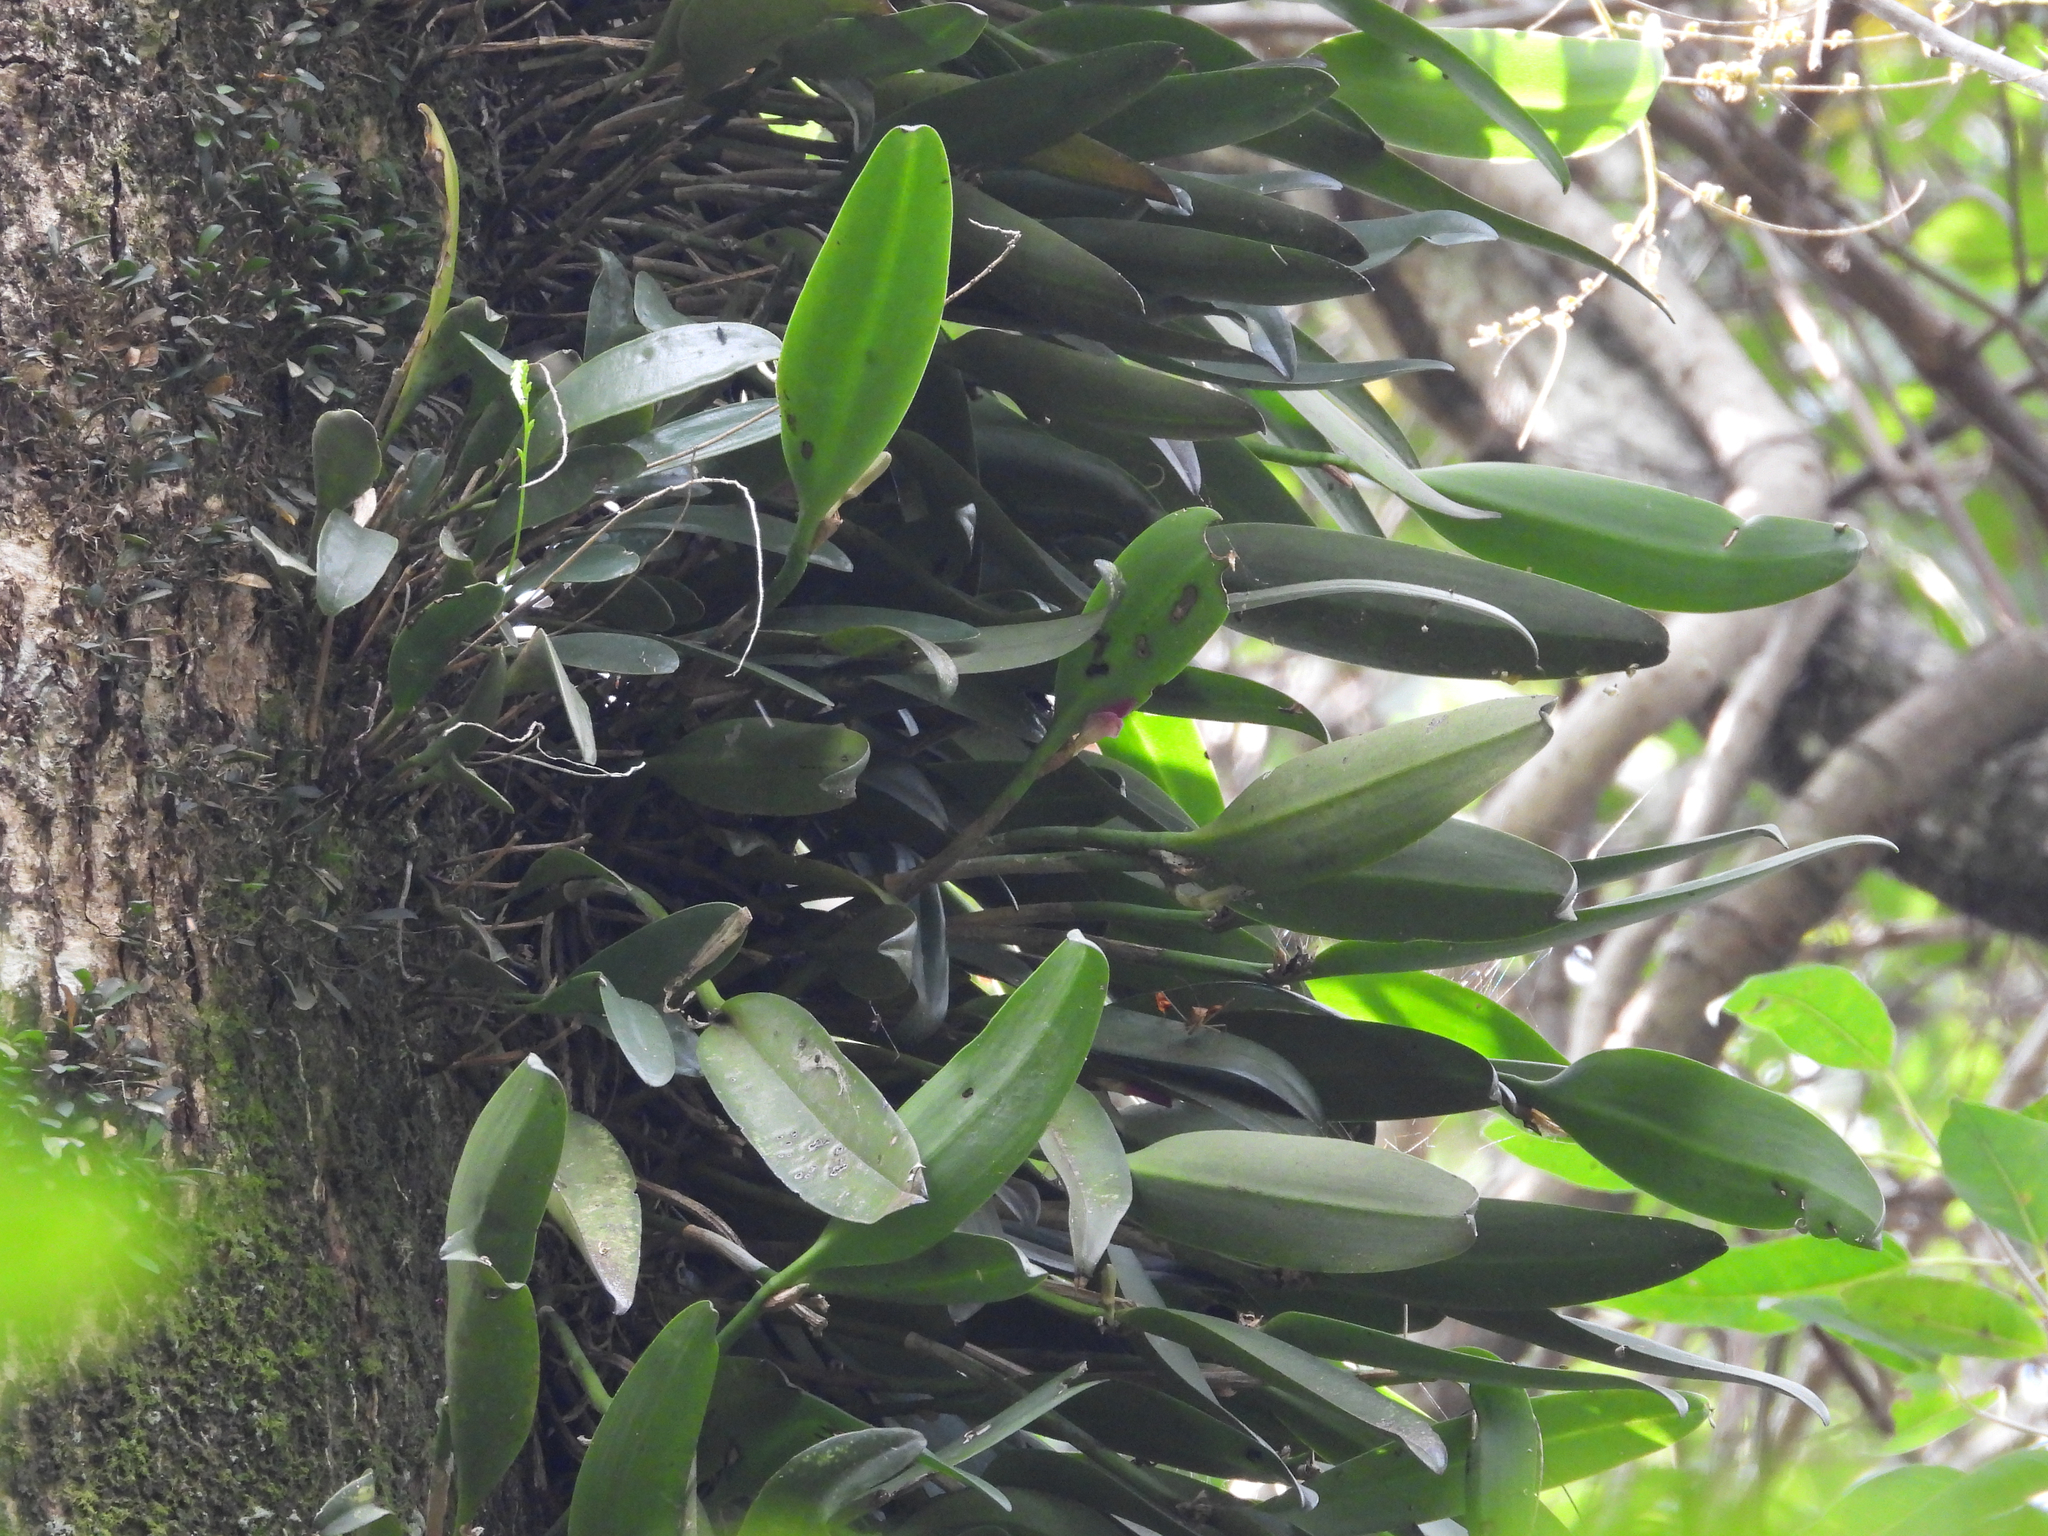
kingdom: Plantae
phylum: Tracheophyta
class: Liliopsida
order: Asparagales
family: Orchidaceae
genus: Restrepiella
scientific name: Restrepiella ophiocephala
